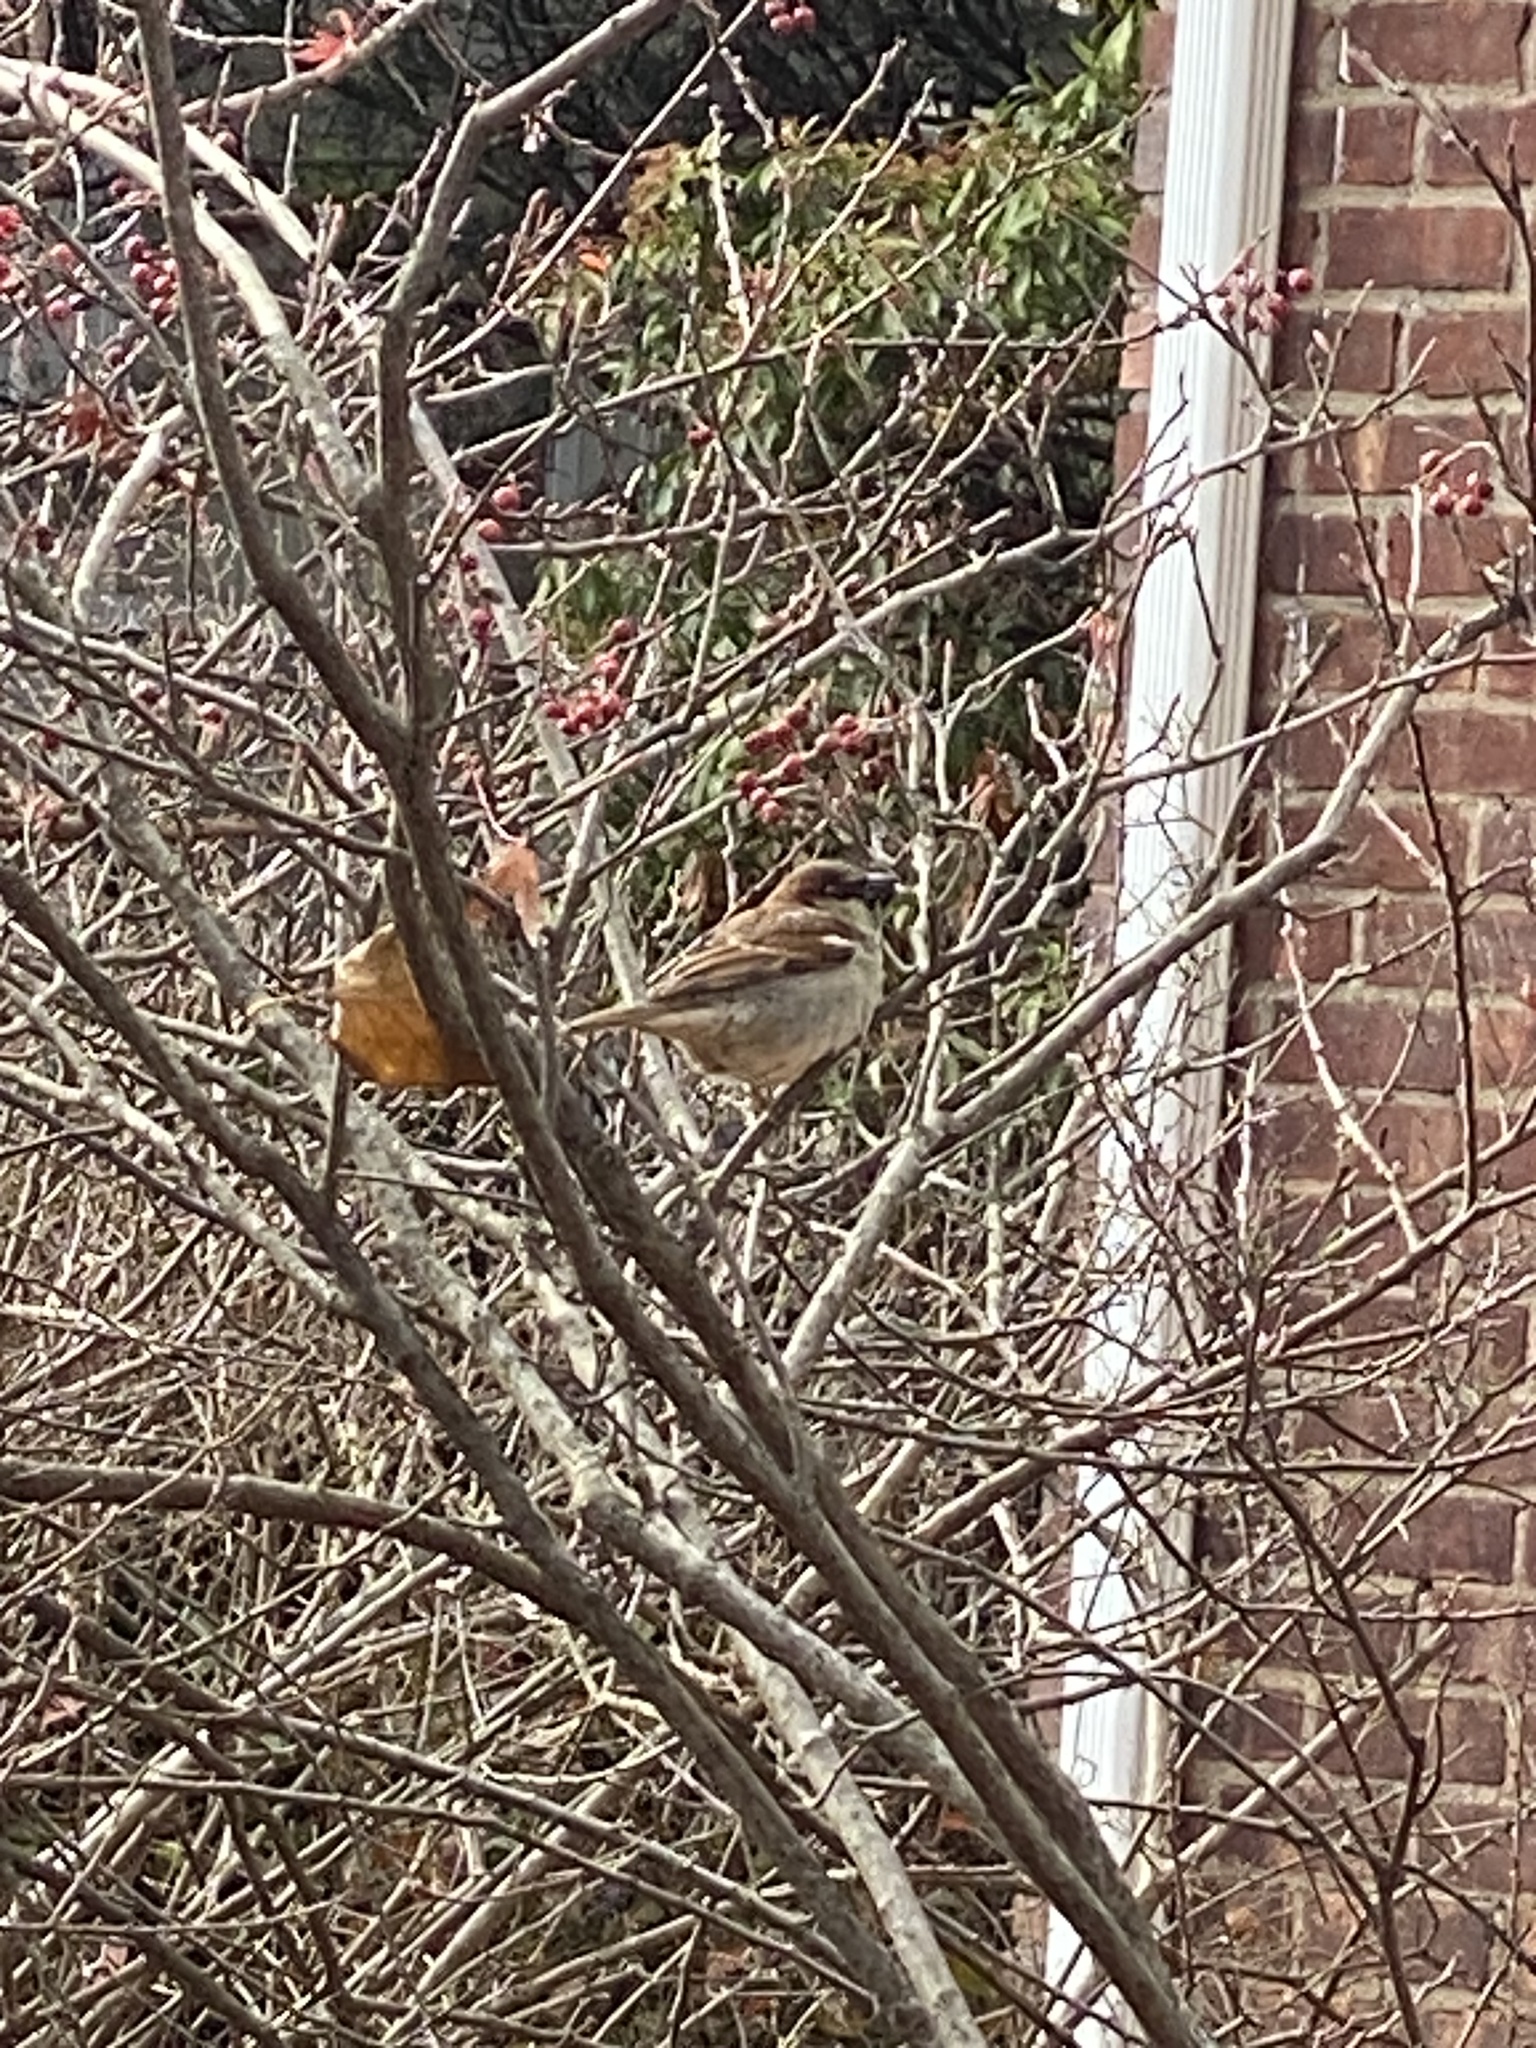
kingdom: Animalia
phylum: Chordata
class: Aves
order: Passeriformes
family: Passeridae
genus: Passer
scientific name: Passer domesticus
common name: House sparrow
